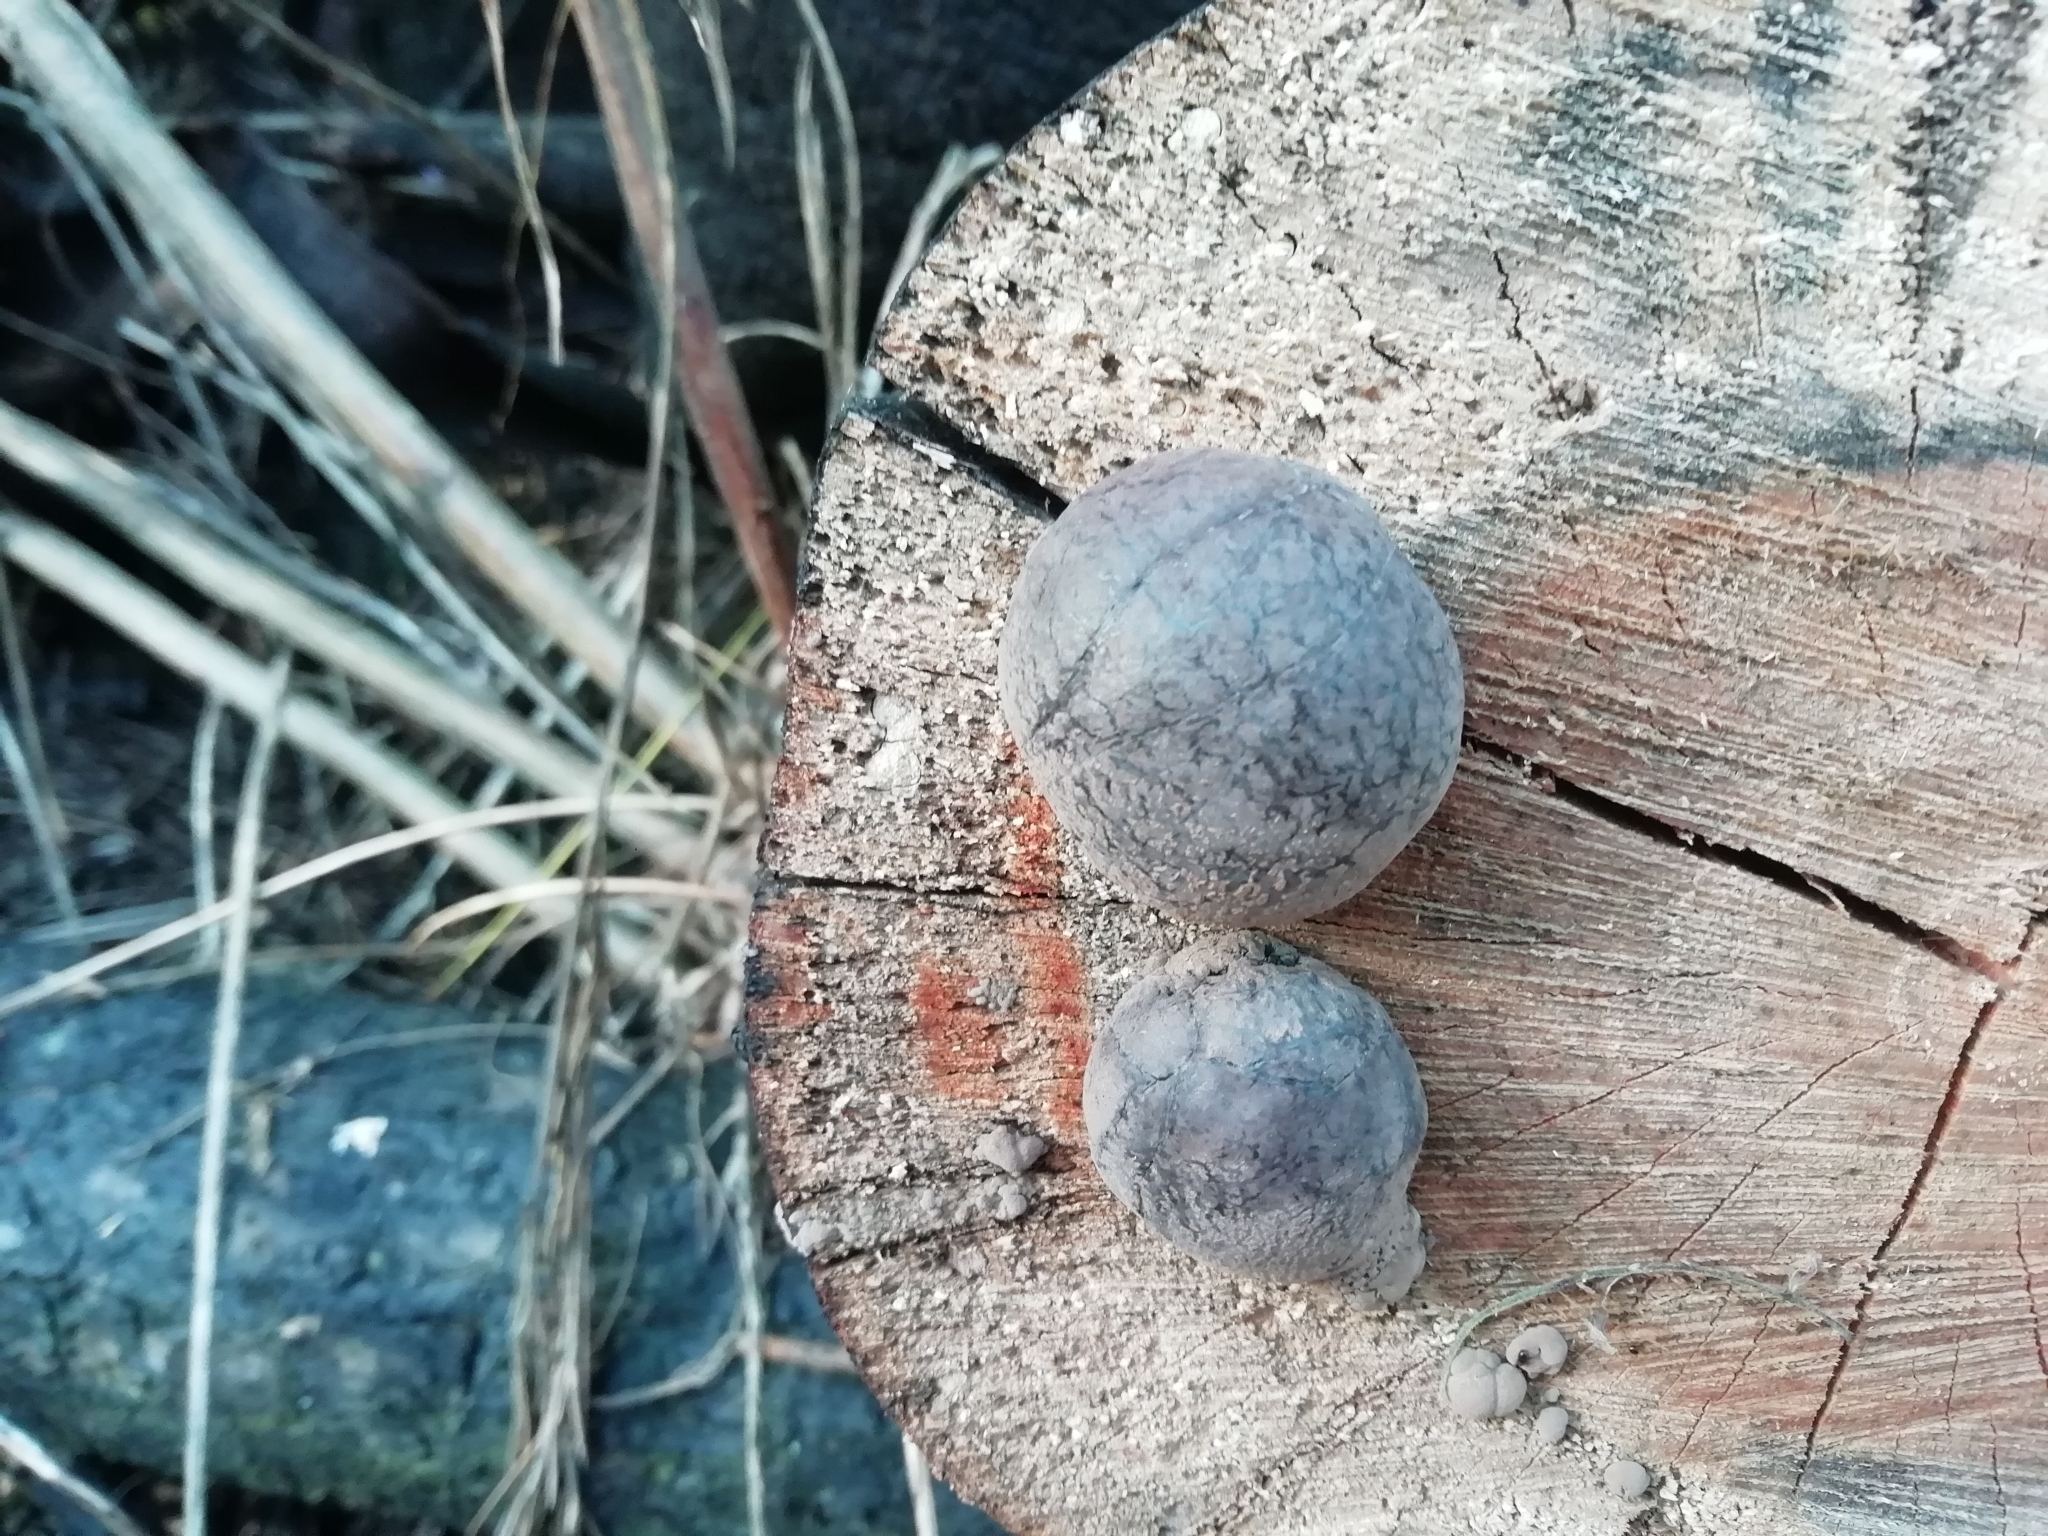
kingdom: Fungi
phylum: Ascomycota
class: Sordariomycetes
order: Xylariales
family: Hypoxylaceae
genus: Daldinia
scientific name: Daldinia concentrica
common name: Cramp balls
